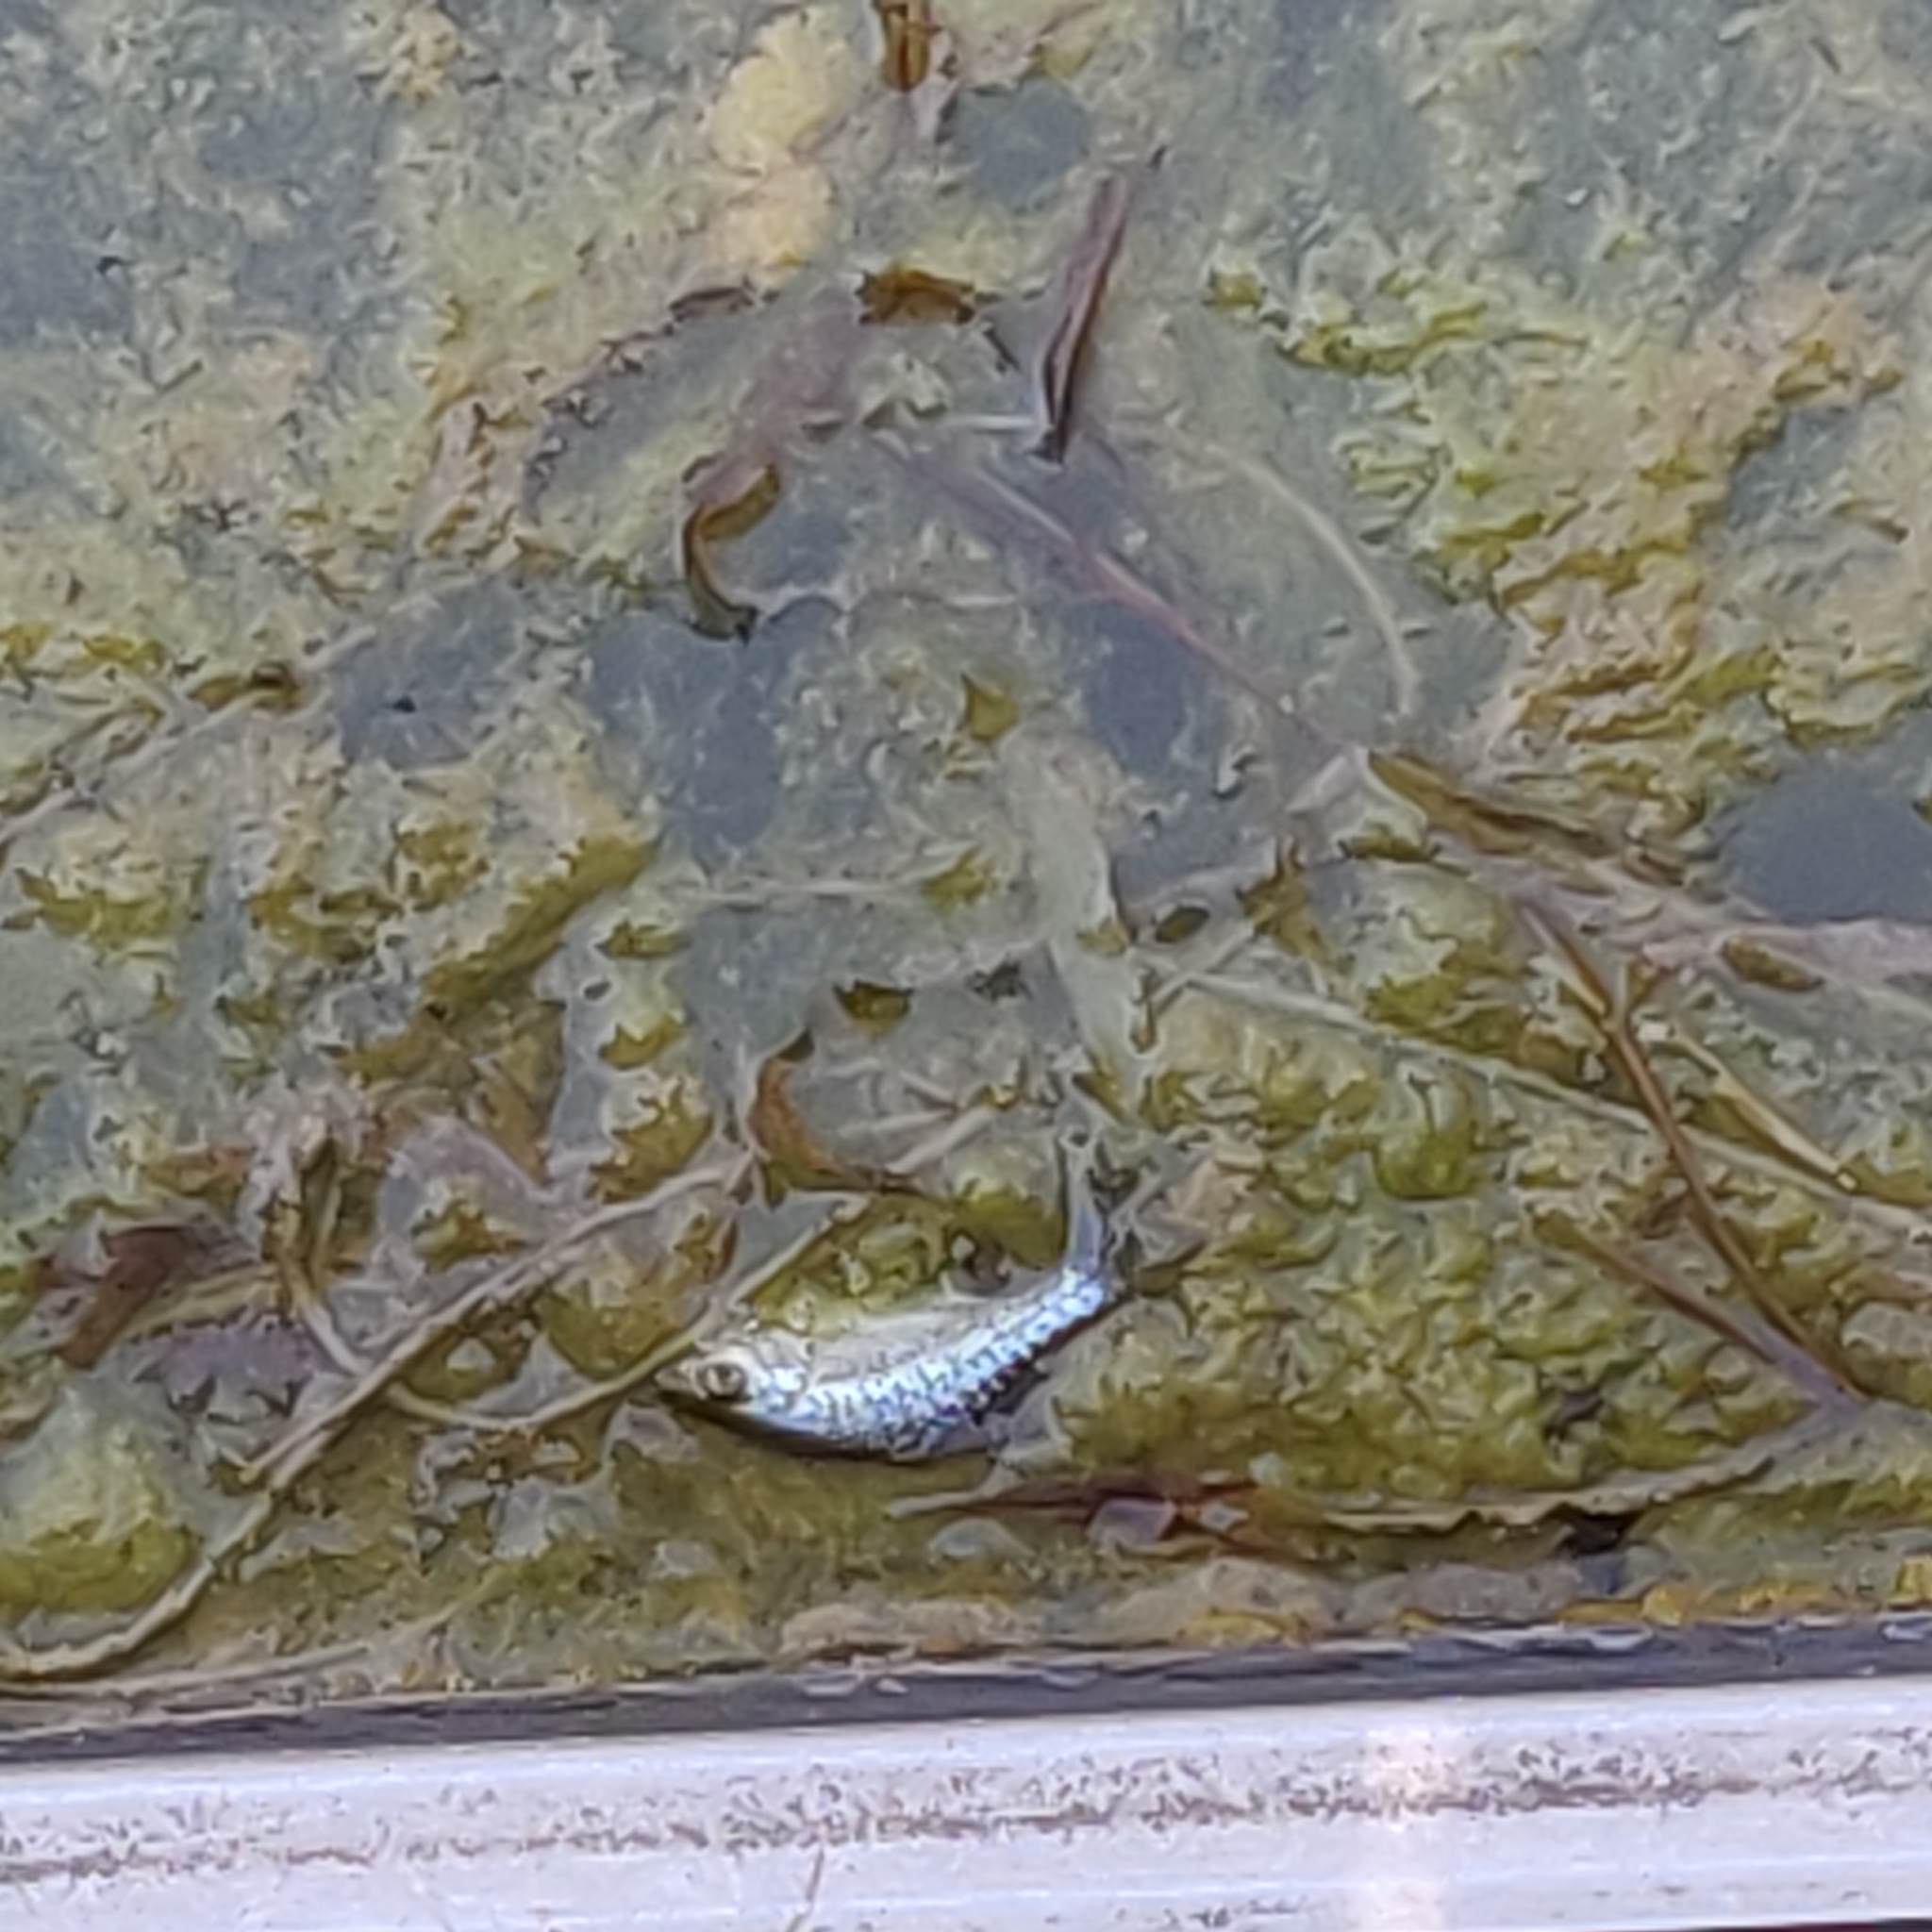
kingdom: Animalia
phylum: Chordata
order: Perciformes
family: Centrarchidae
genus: Pomoxis
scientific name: Pomoxis nigromaculatus
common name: Black crappie
